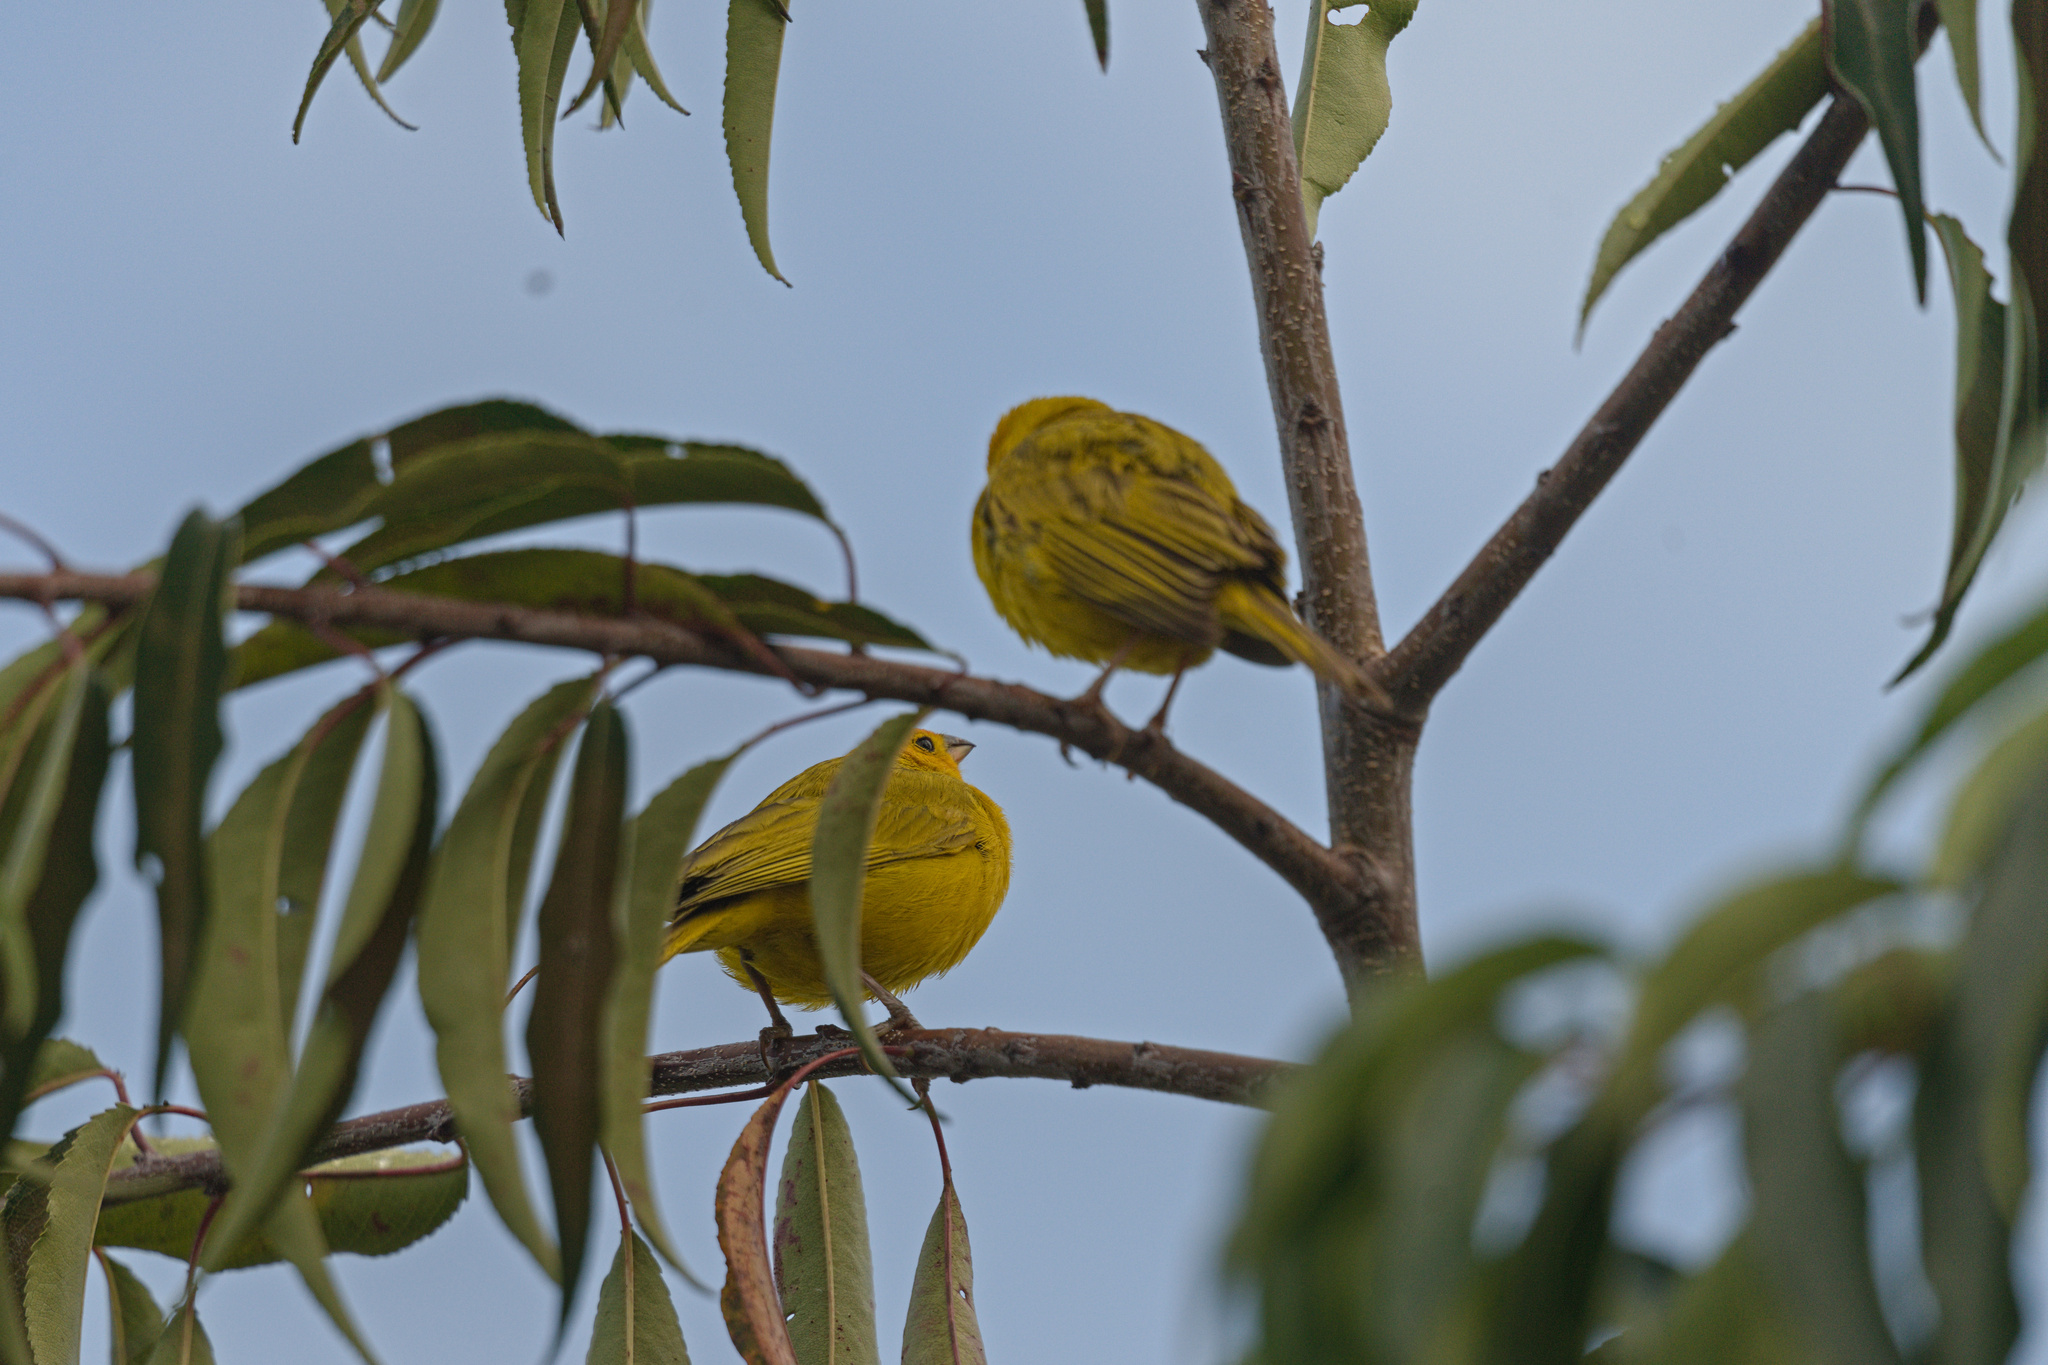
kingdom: Animalia
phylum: Chordata
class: Aves
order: Passeriformes
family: Thraupidae
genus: Sicalis
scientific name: Sicalis flaveola
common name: Saffron finch
